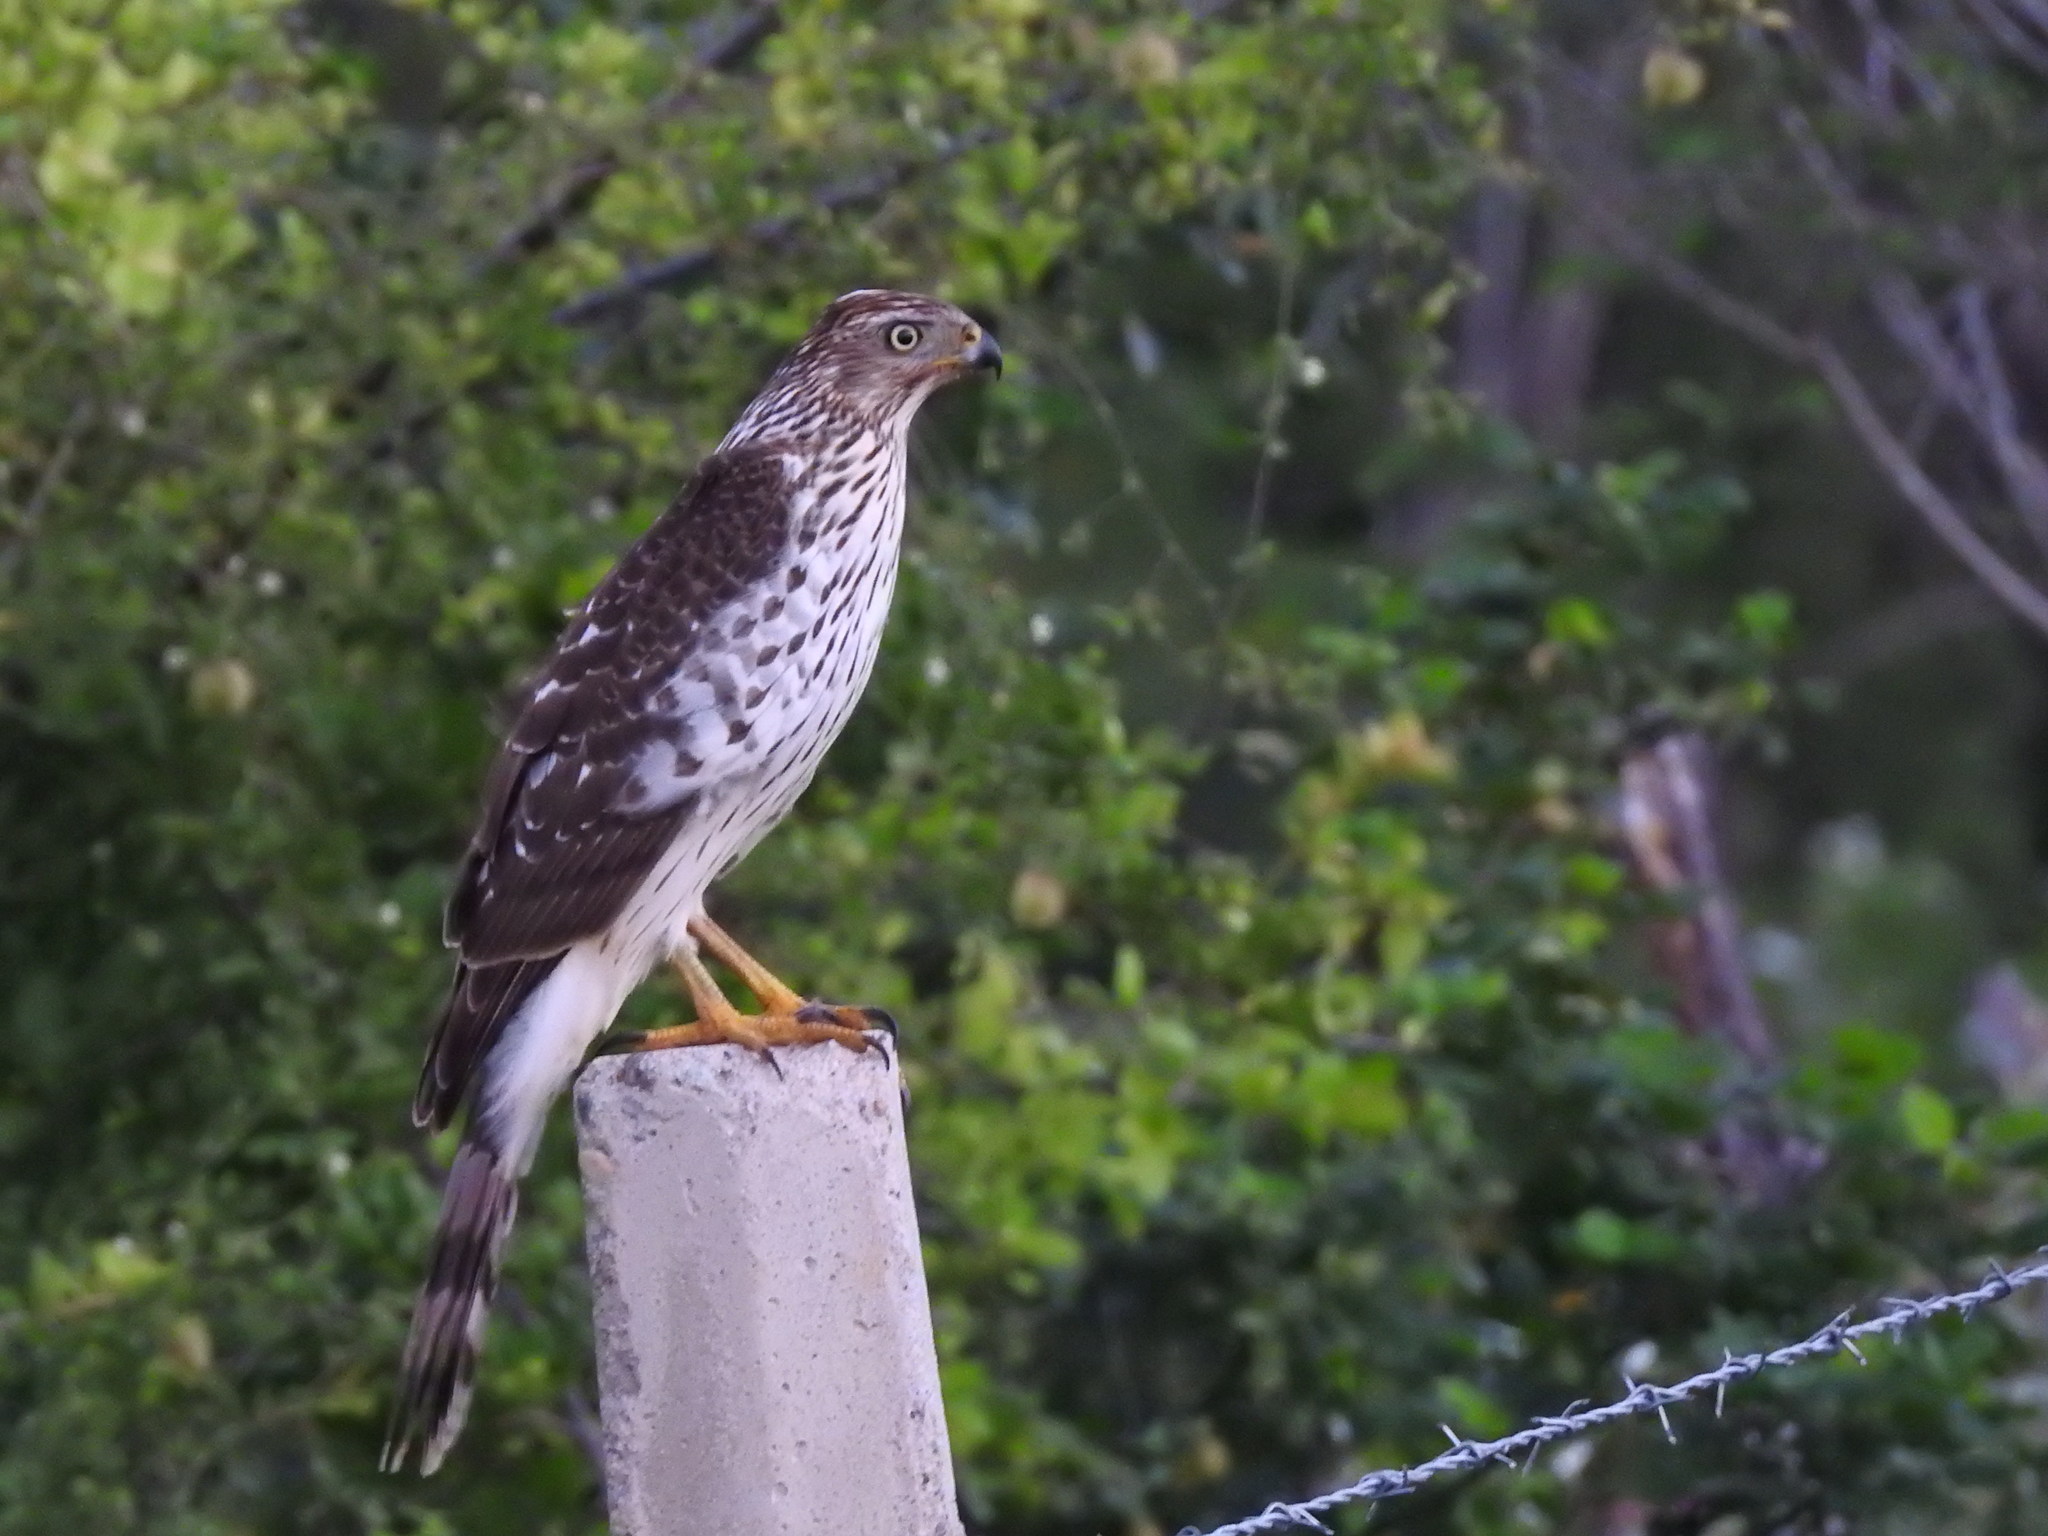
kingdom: Animalia
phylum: Chordata
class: Aves
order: Accipitriformes
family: Accipitridae
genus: Accipiter
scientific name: Accipiter cooperii
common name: Cooper's hawk
